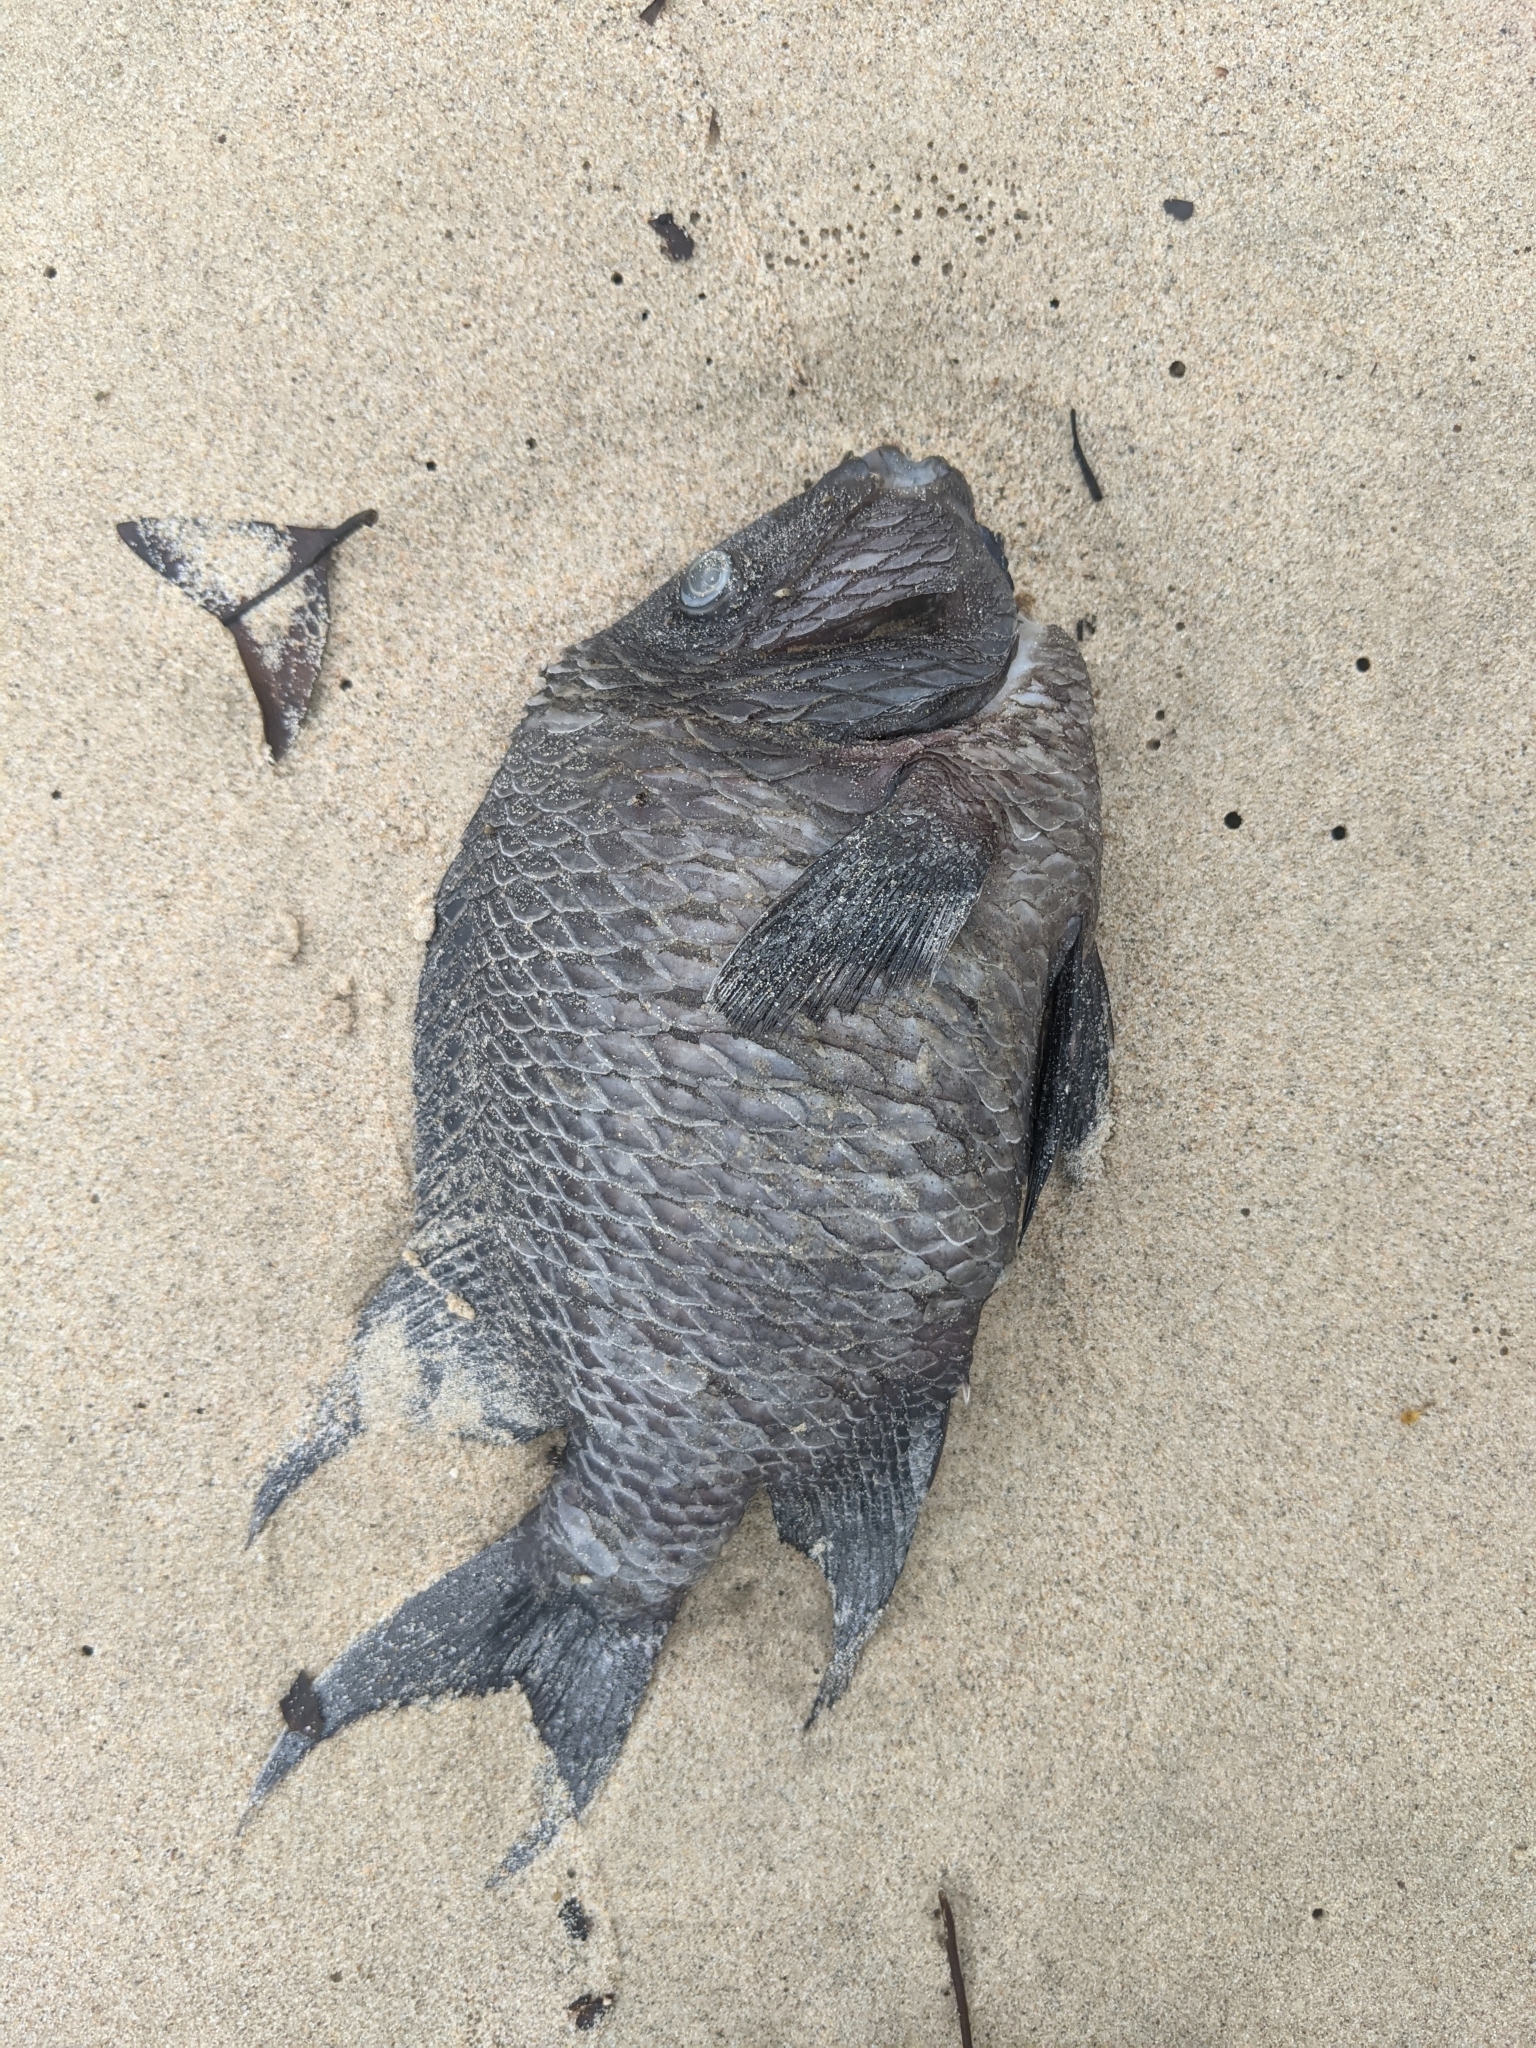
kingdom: Animalia
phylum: Chordata
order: Perciformes
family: Pomacentridae
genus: Microspathodon
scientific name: Microspathodon dorsalis
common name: Giant damselfish
